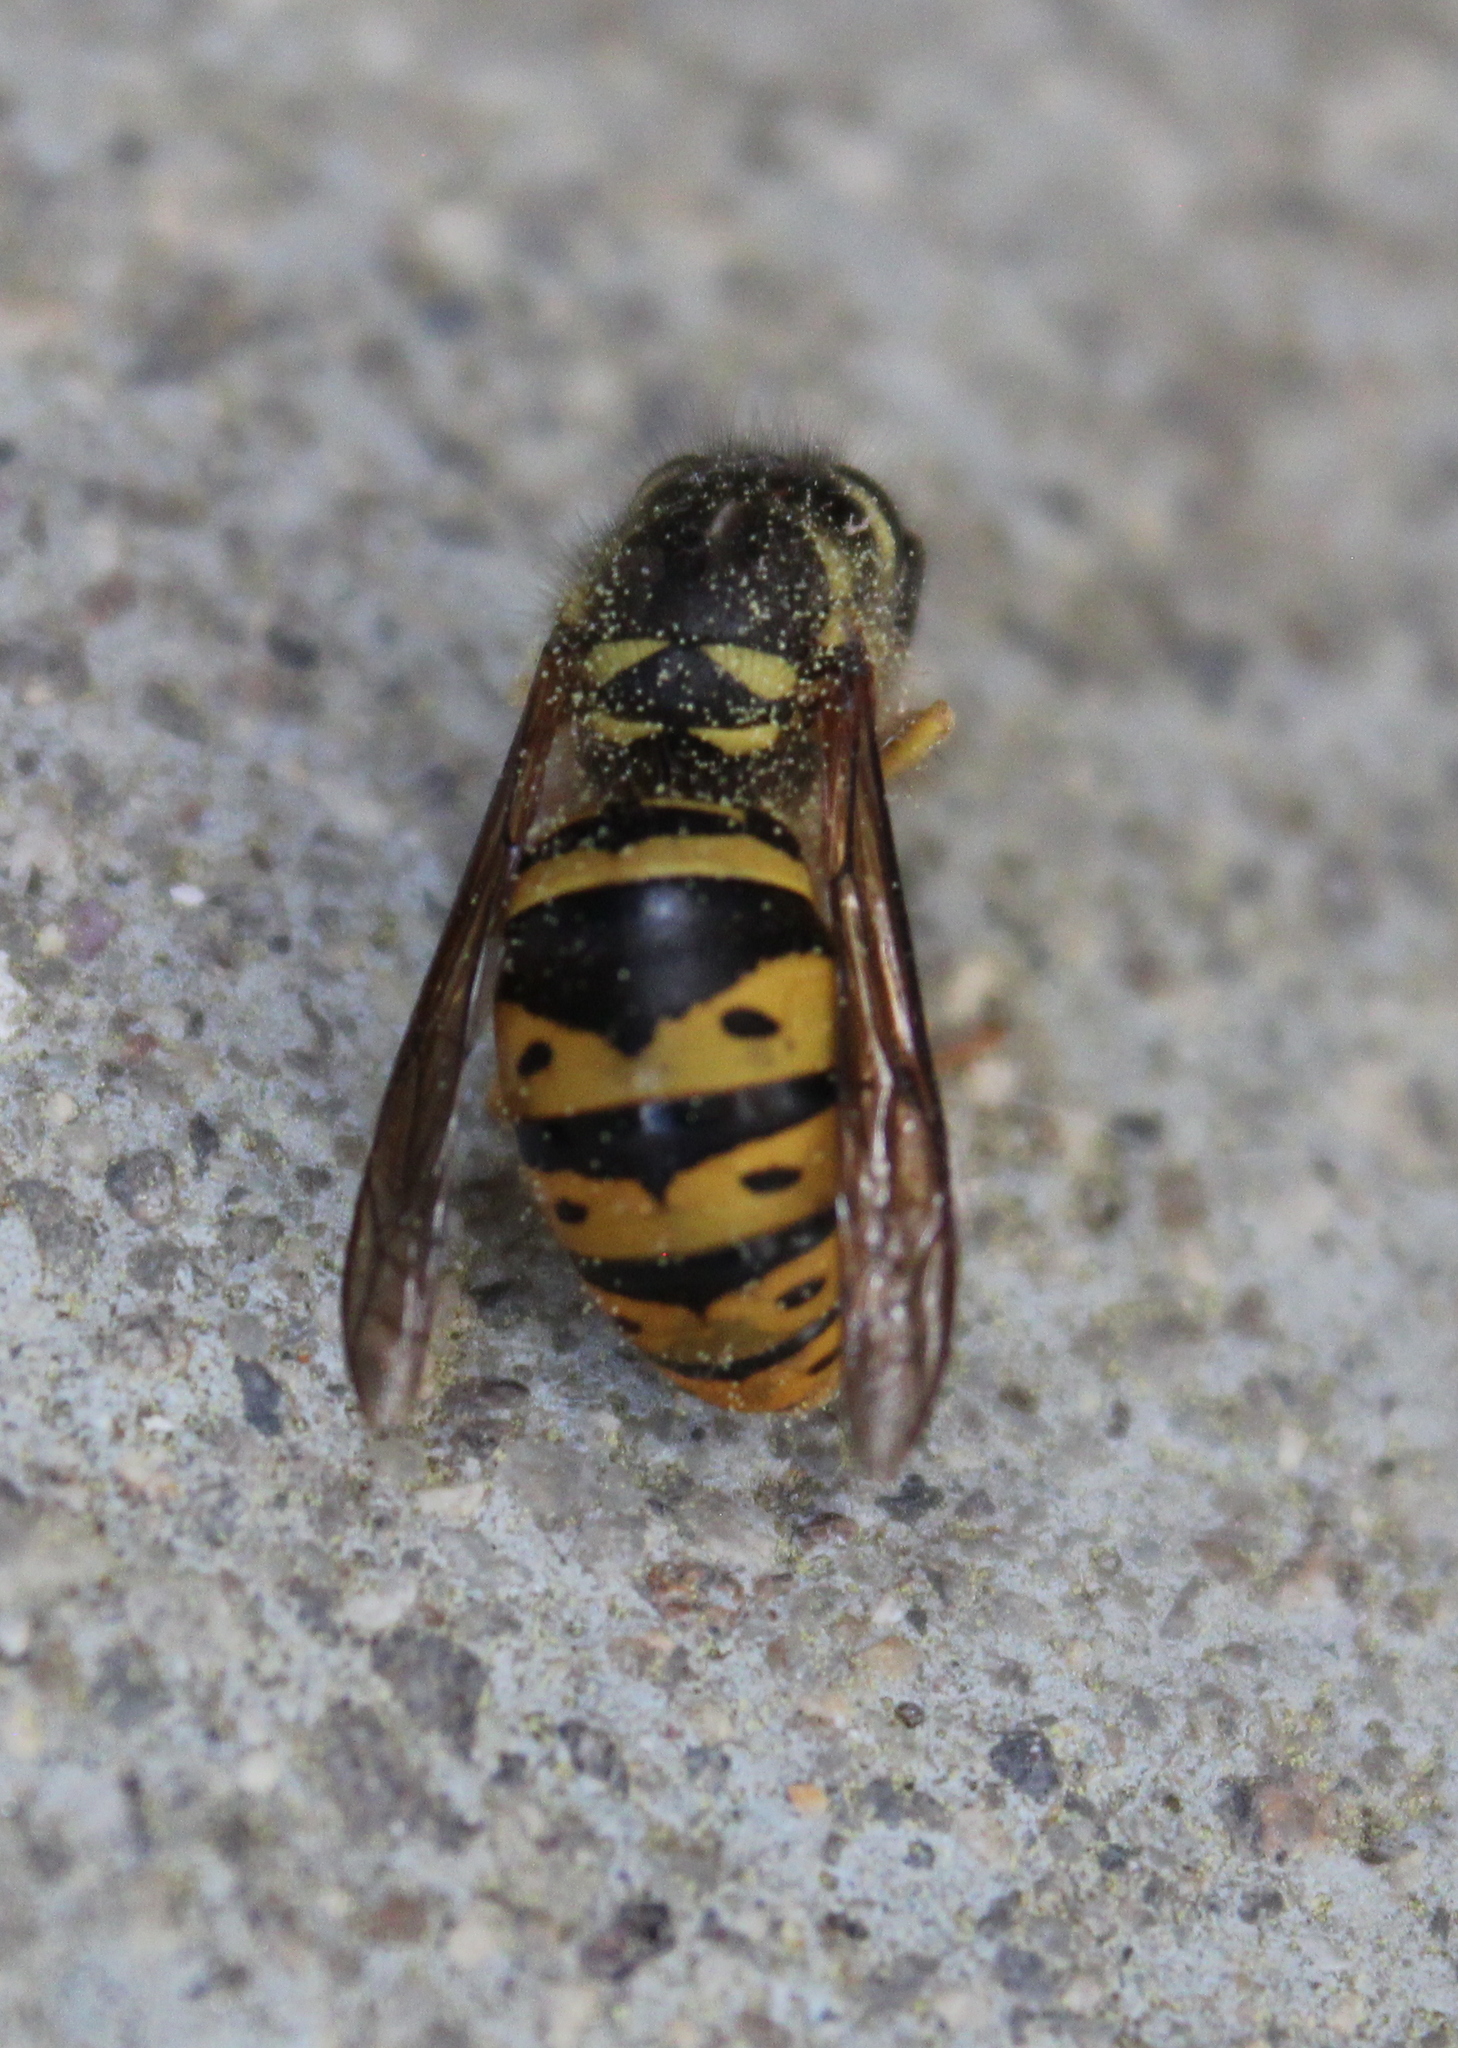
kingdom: Animalia
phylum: Arthropoda
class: Insecta
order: Hymenoptera
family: Vespidae
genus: Vespula
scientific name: Vespula maculifrons
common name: Eastern yellowjacket
